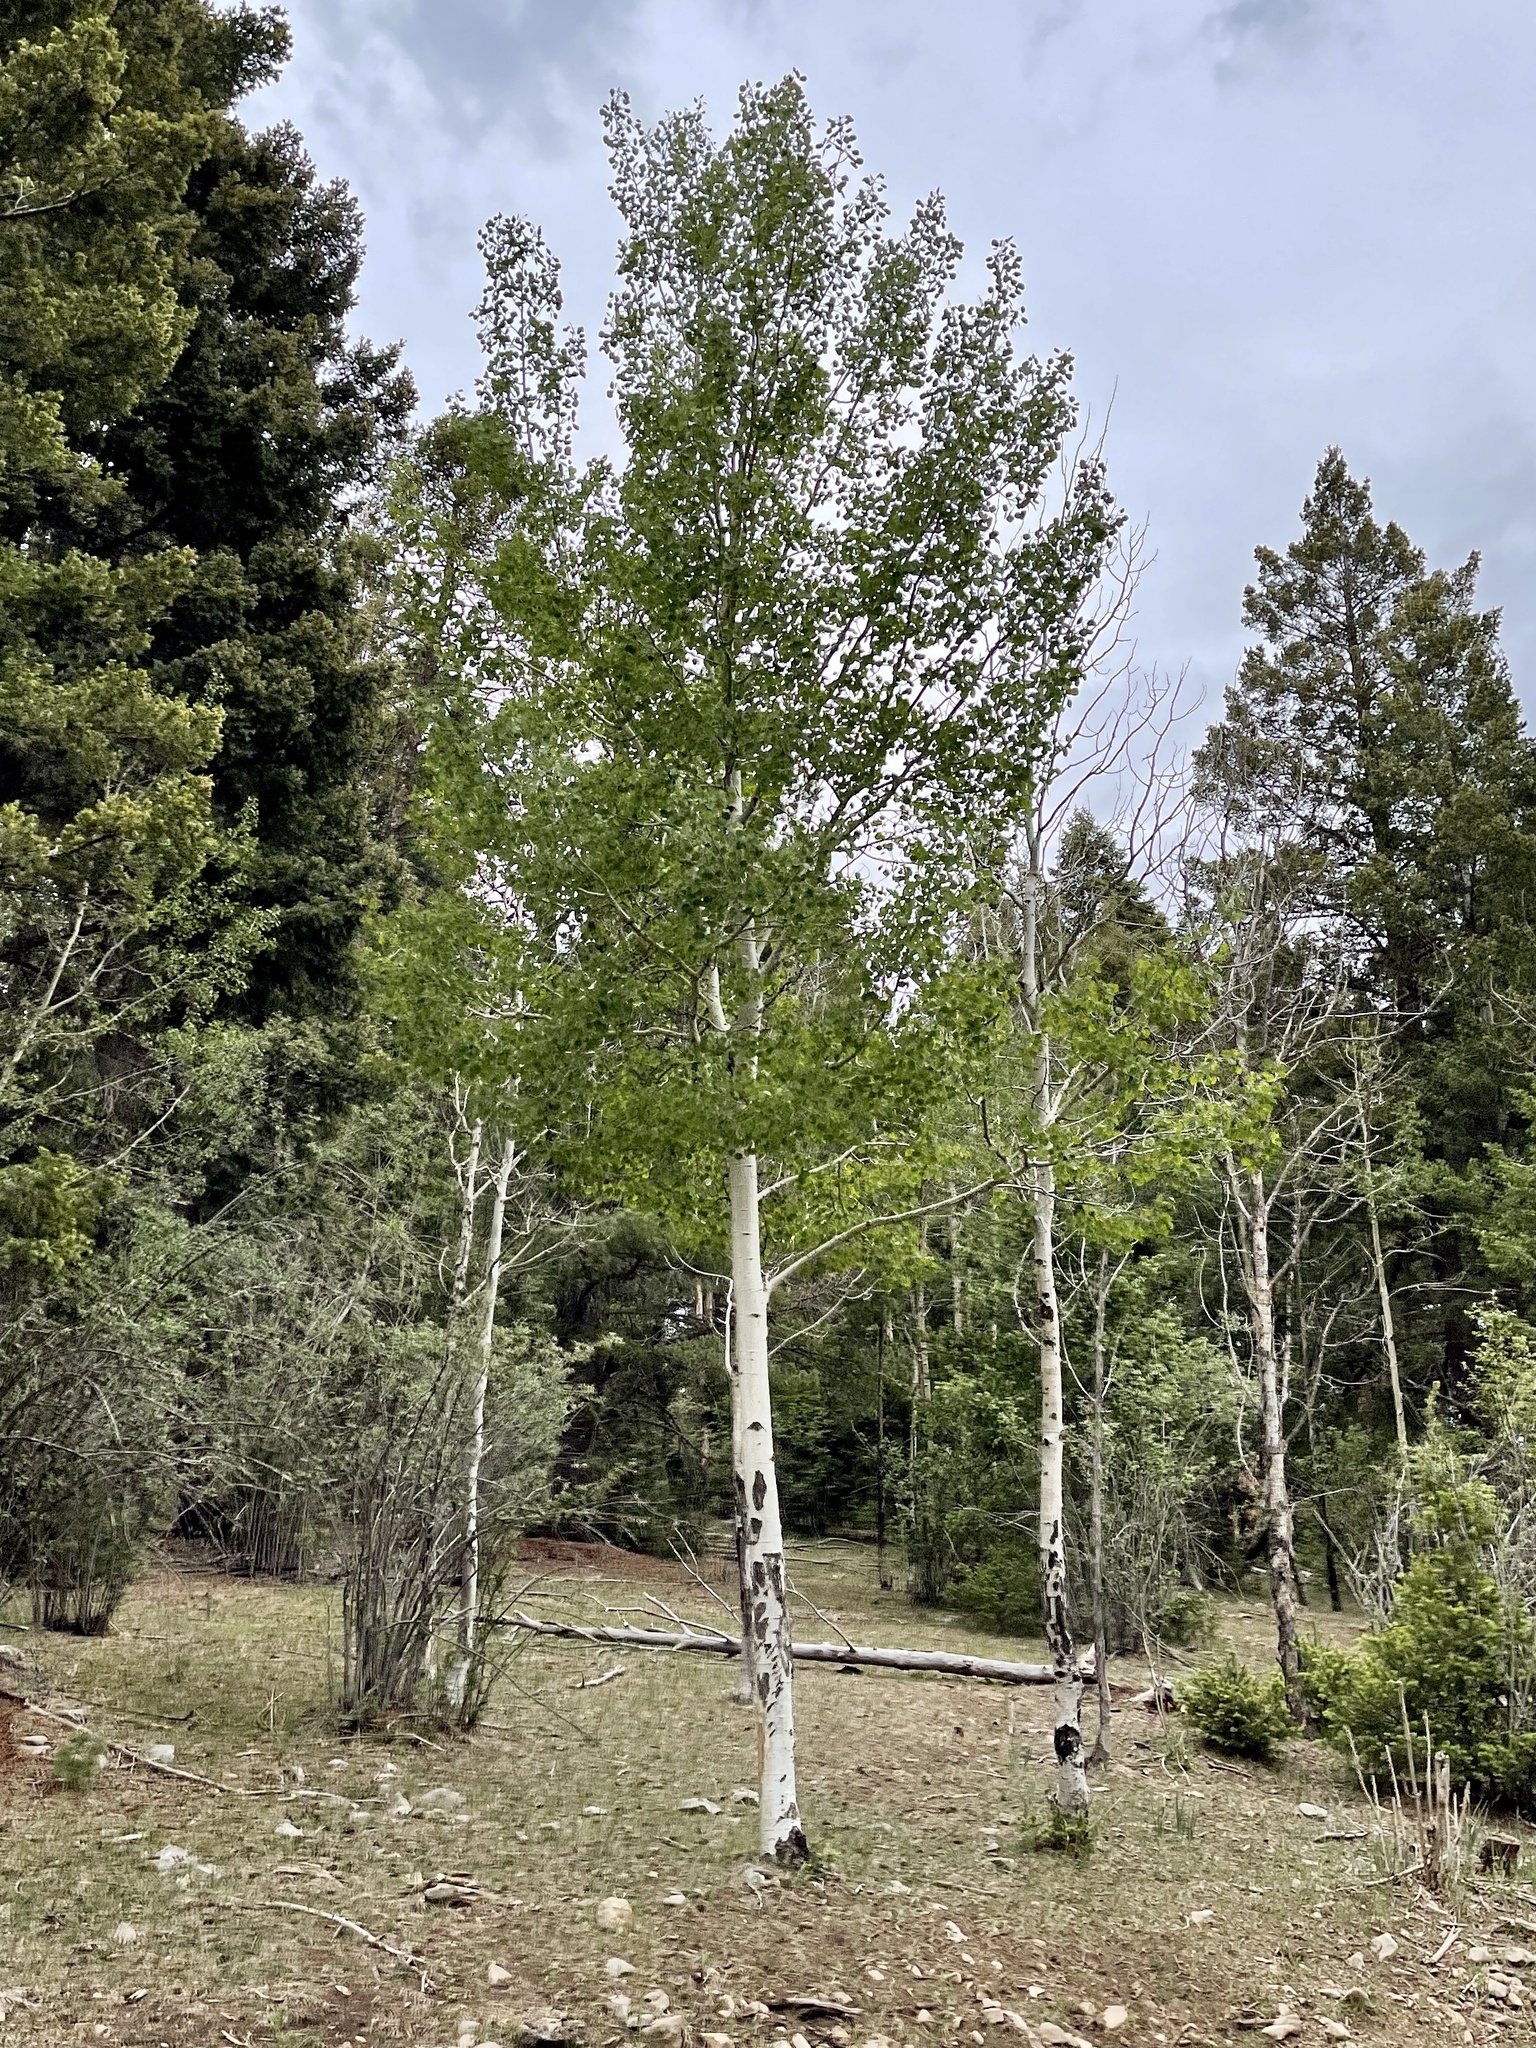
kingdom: Plantae
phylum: Tracheophyta
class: Magnoliopsida
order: Malpighiales
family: Salicaceae
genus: Populus
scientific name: Populus tremuloides
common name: Quaking aspen
